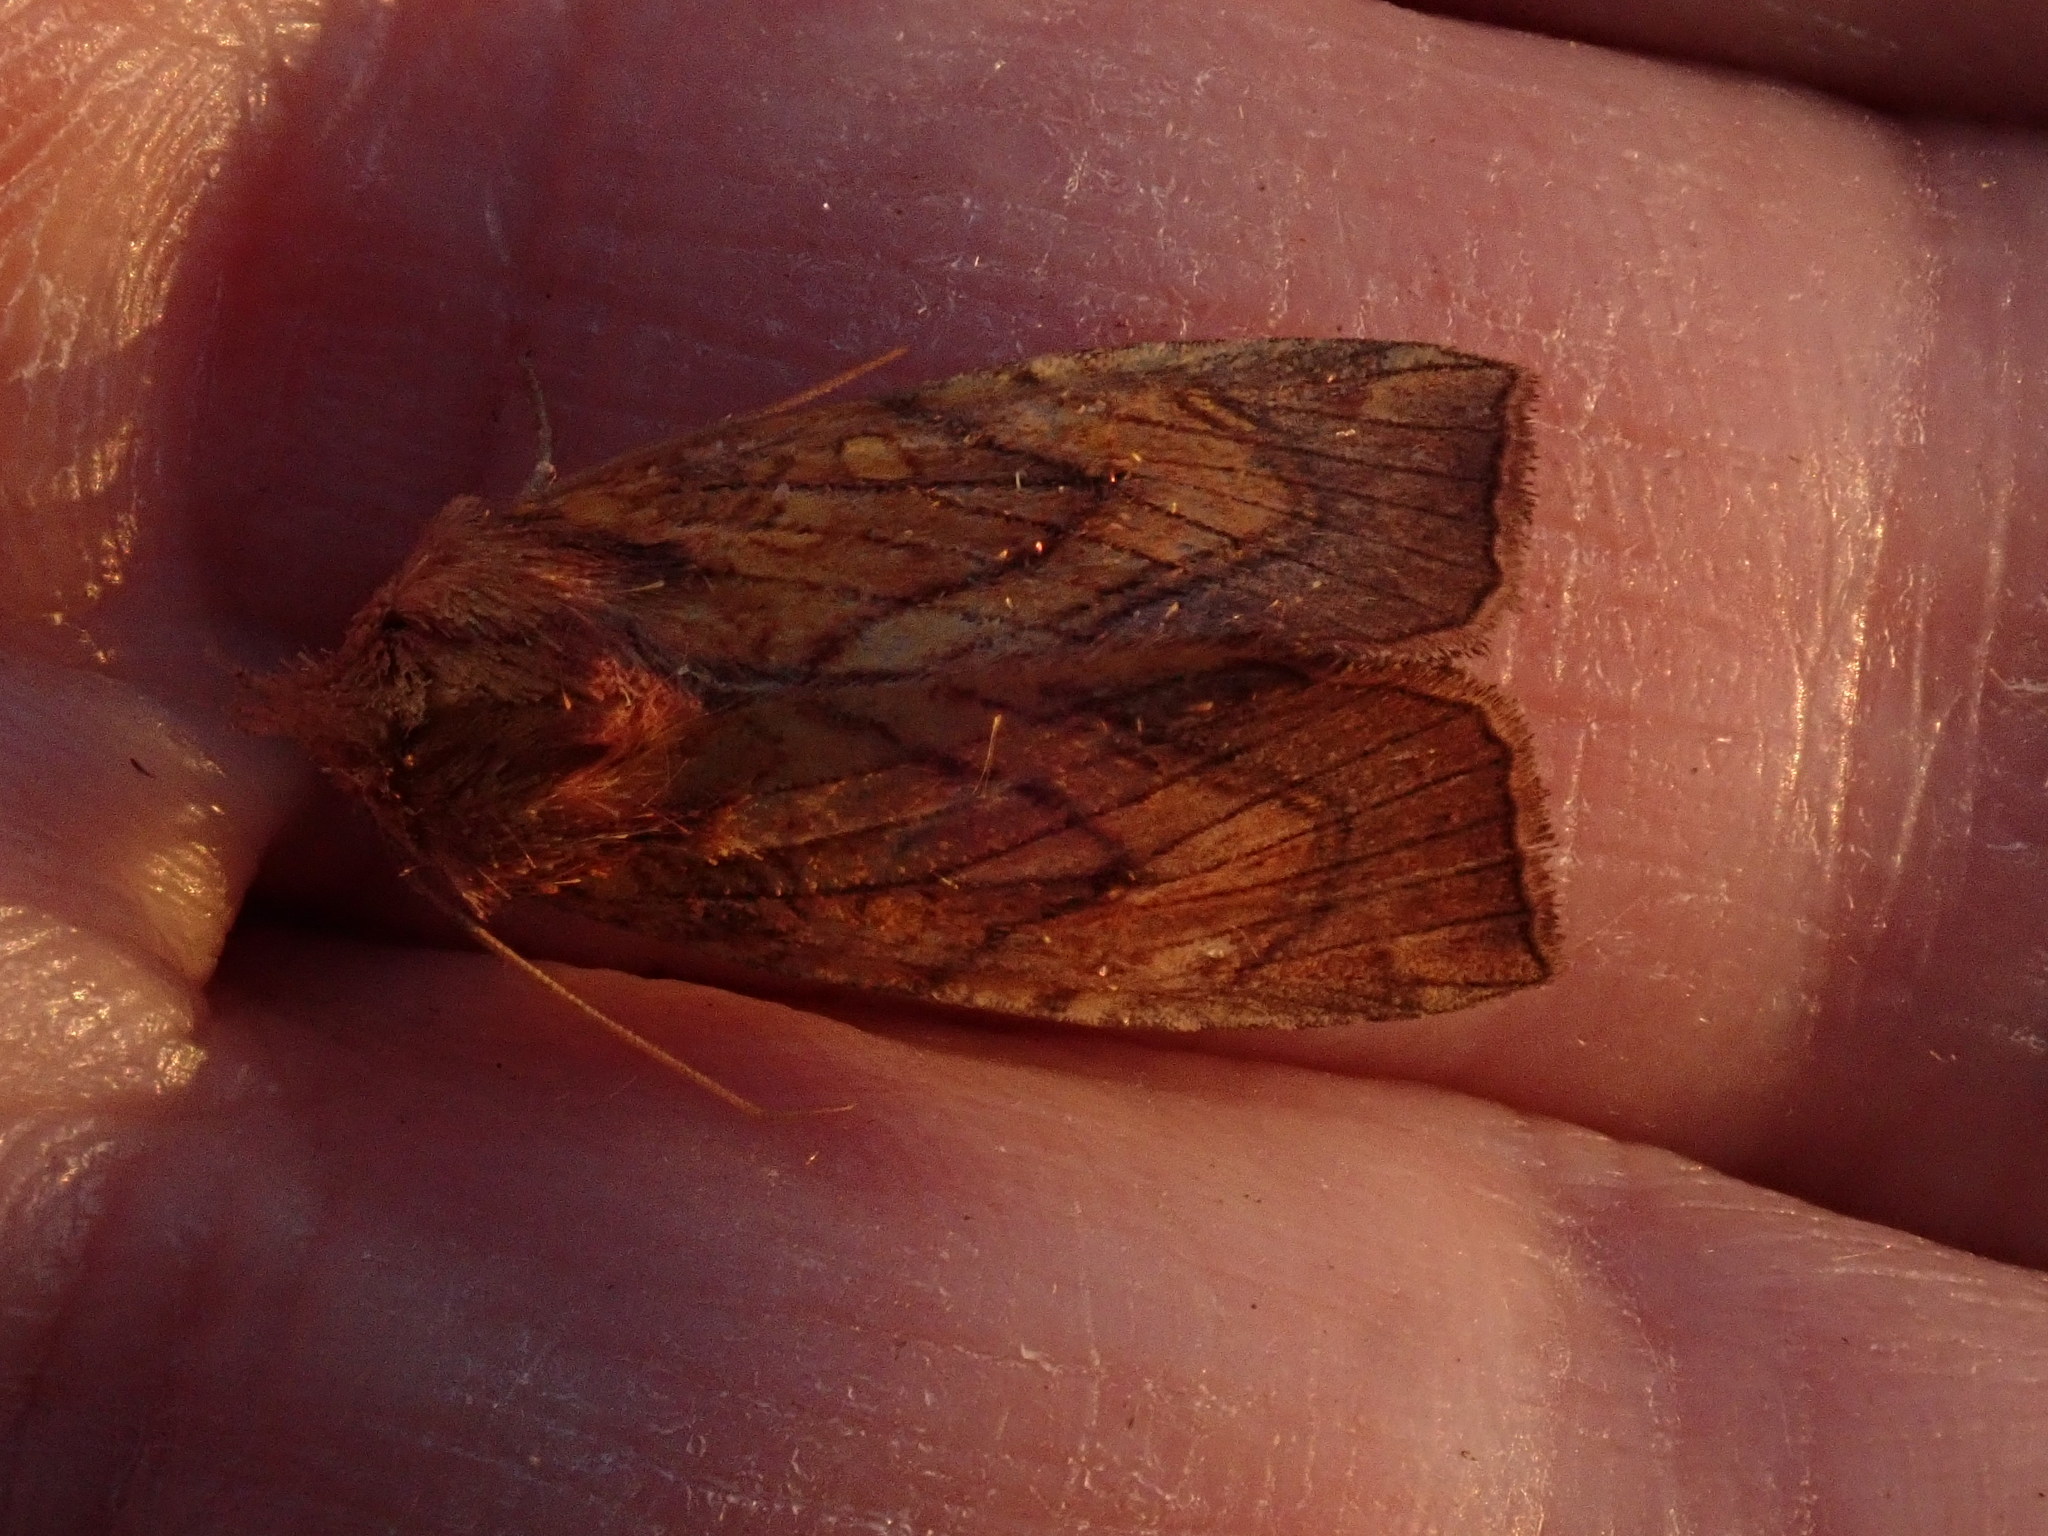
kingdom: Animalia
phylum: Arthropoda
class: Insecta
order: Lepidoptera
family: Noctuidae
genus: Papaipema
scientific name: Papaipema inquaesita
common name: Sensitive fern borer moth
